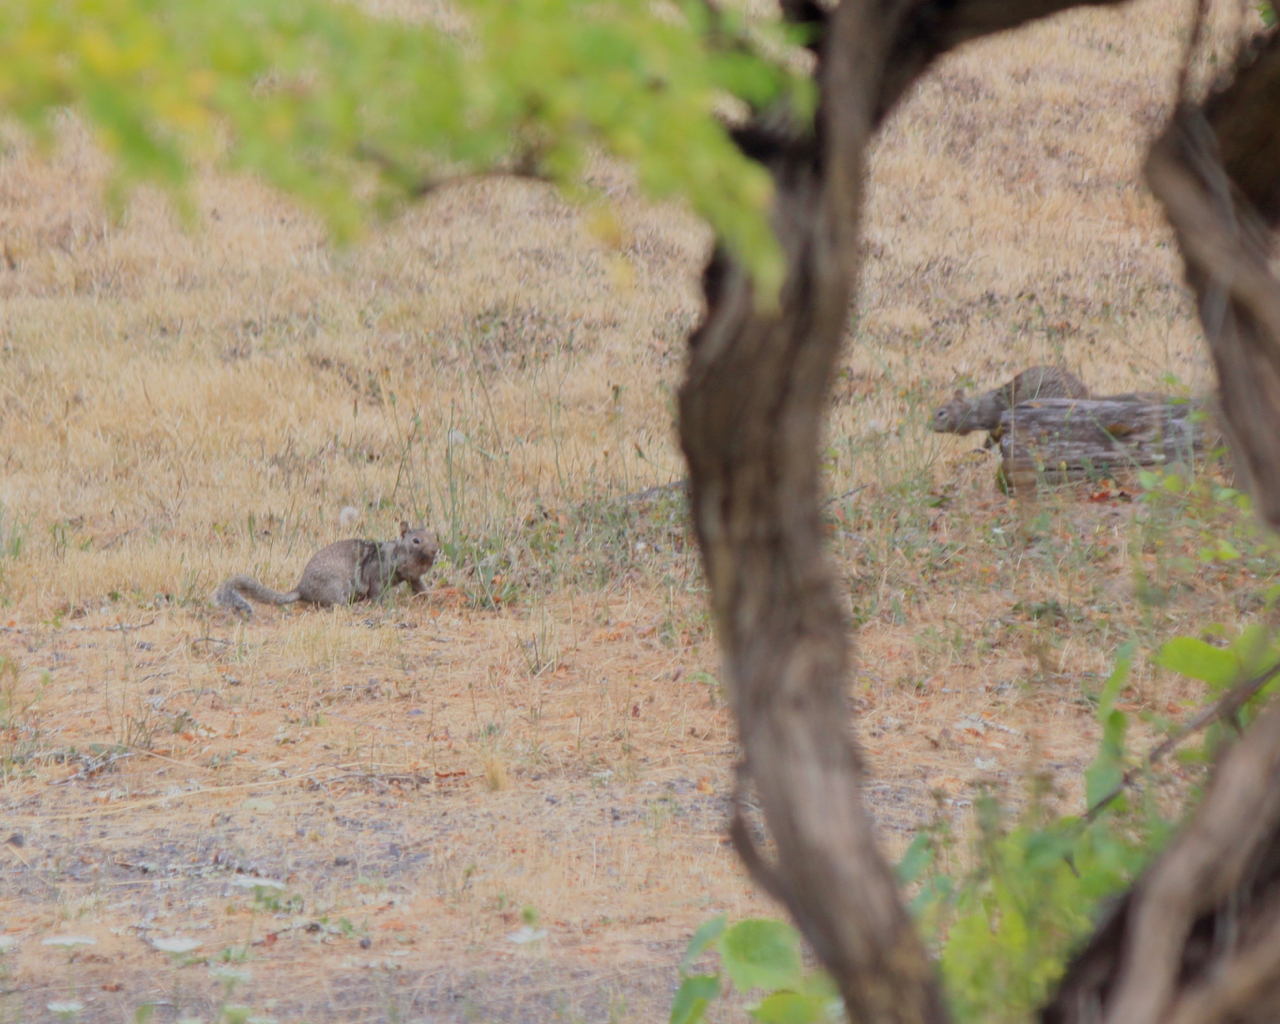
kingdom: Animalia
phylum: Chordata
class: Mammalia
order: Rodentia
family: Sciuridae
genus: Otospermophilus
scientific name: Otospermophilus beecheyi
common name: California ground squirrel
